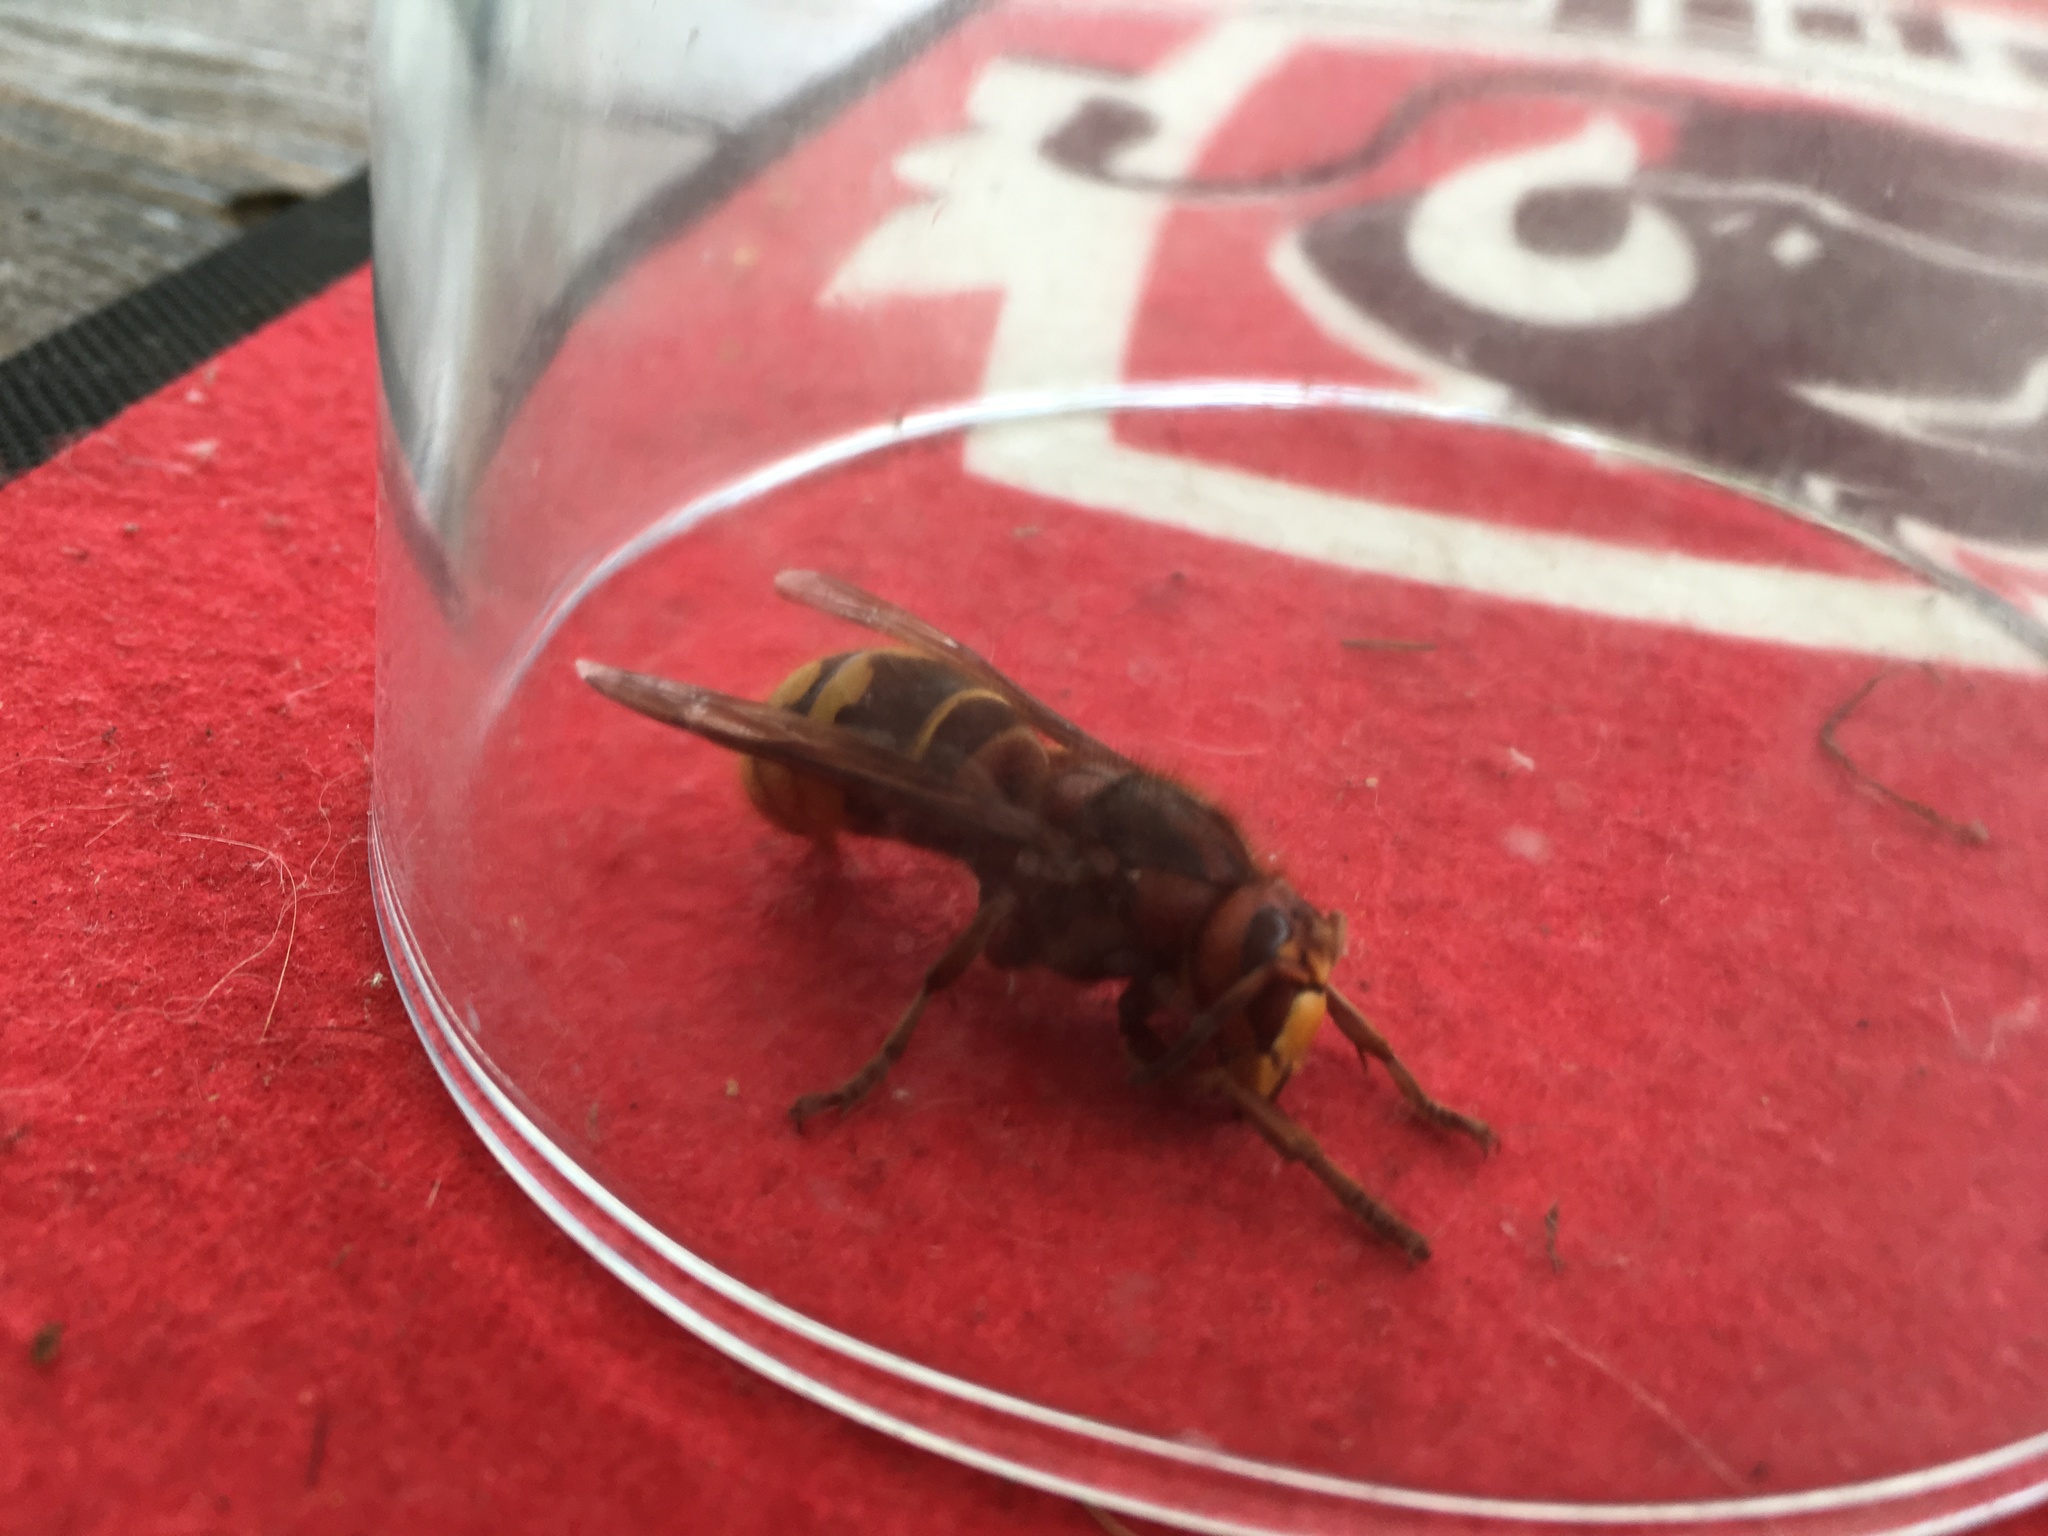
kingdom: Animalia
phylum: Arthropoda
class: Insecta
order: Hymenoptera
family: Vespidae
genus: Vespa
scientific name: Vespa crabro
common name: Hornet
